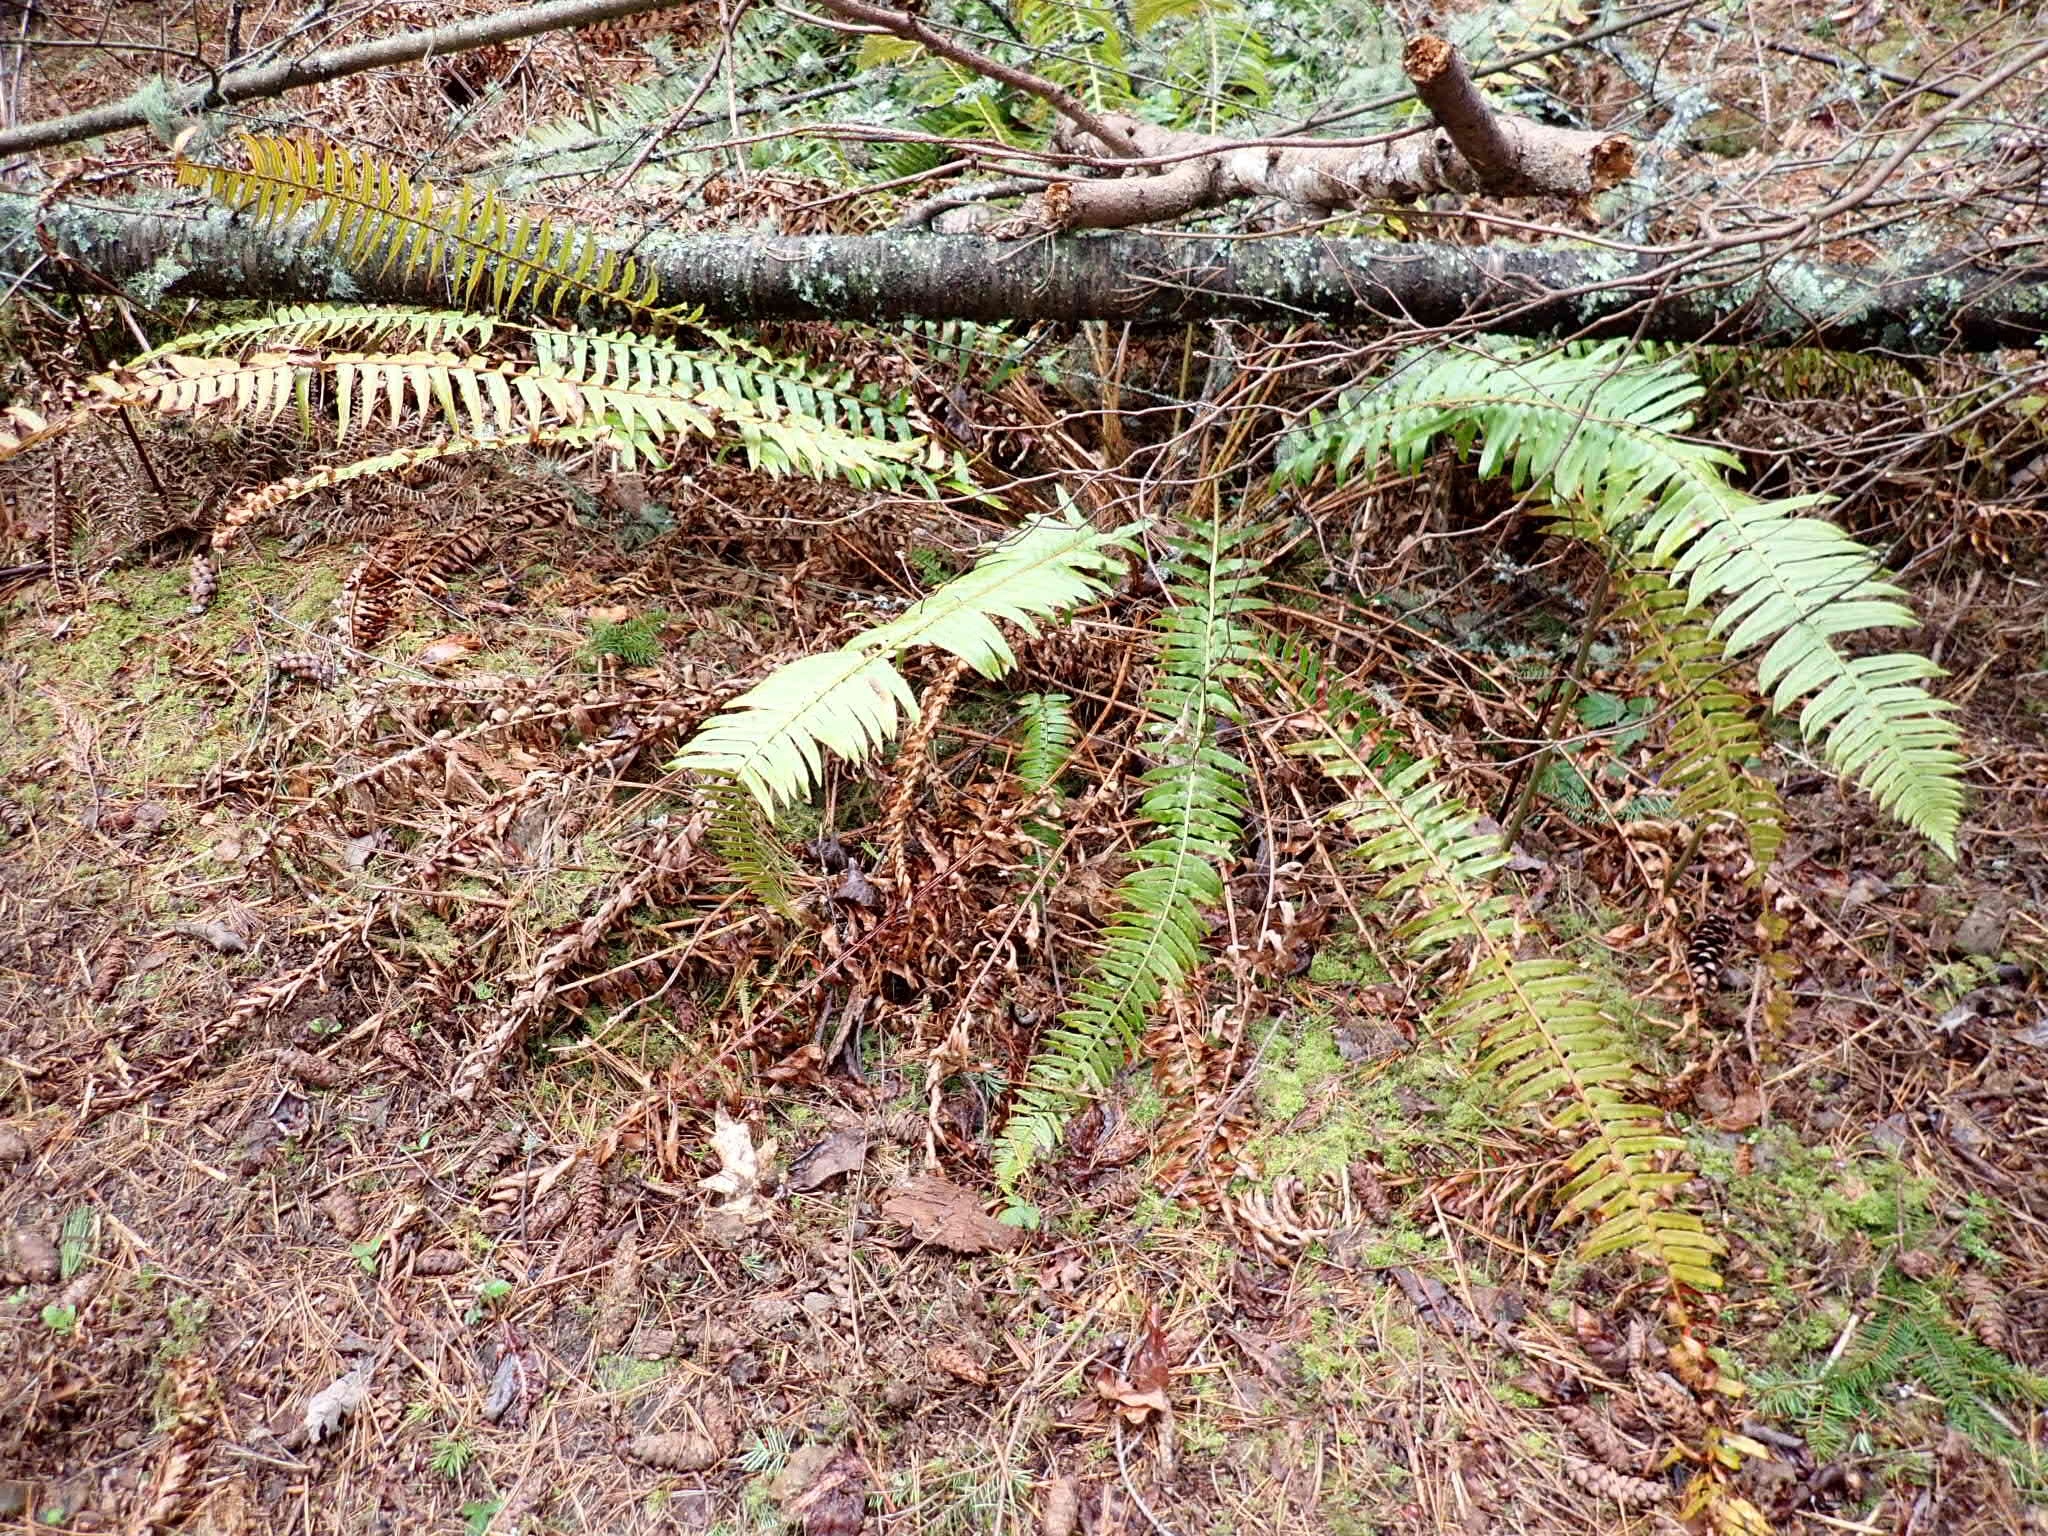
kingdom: Plantae
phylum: Tracheophyta
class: Polypodiopsida
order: Polypodiales
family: Dryopteridaceae
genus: Polystichum
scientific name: Polystichum munitum
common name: Western sword-fern
